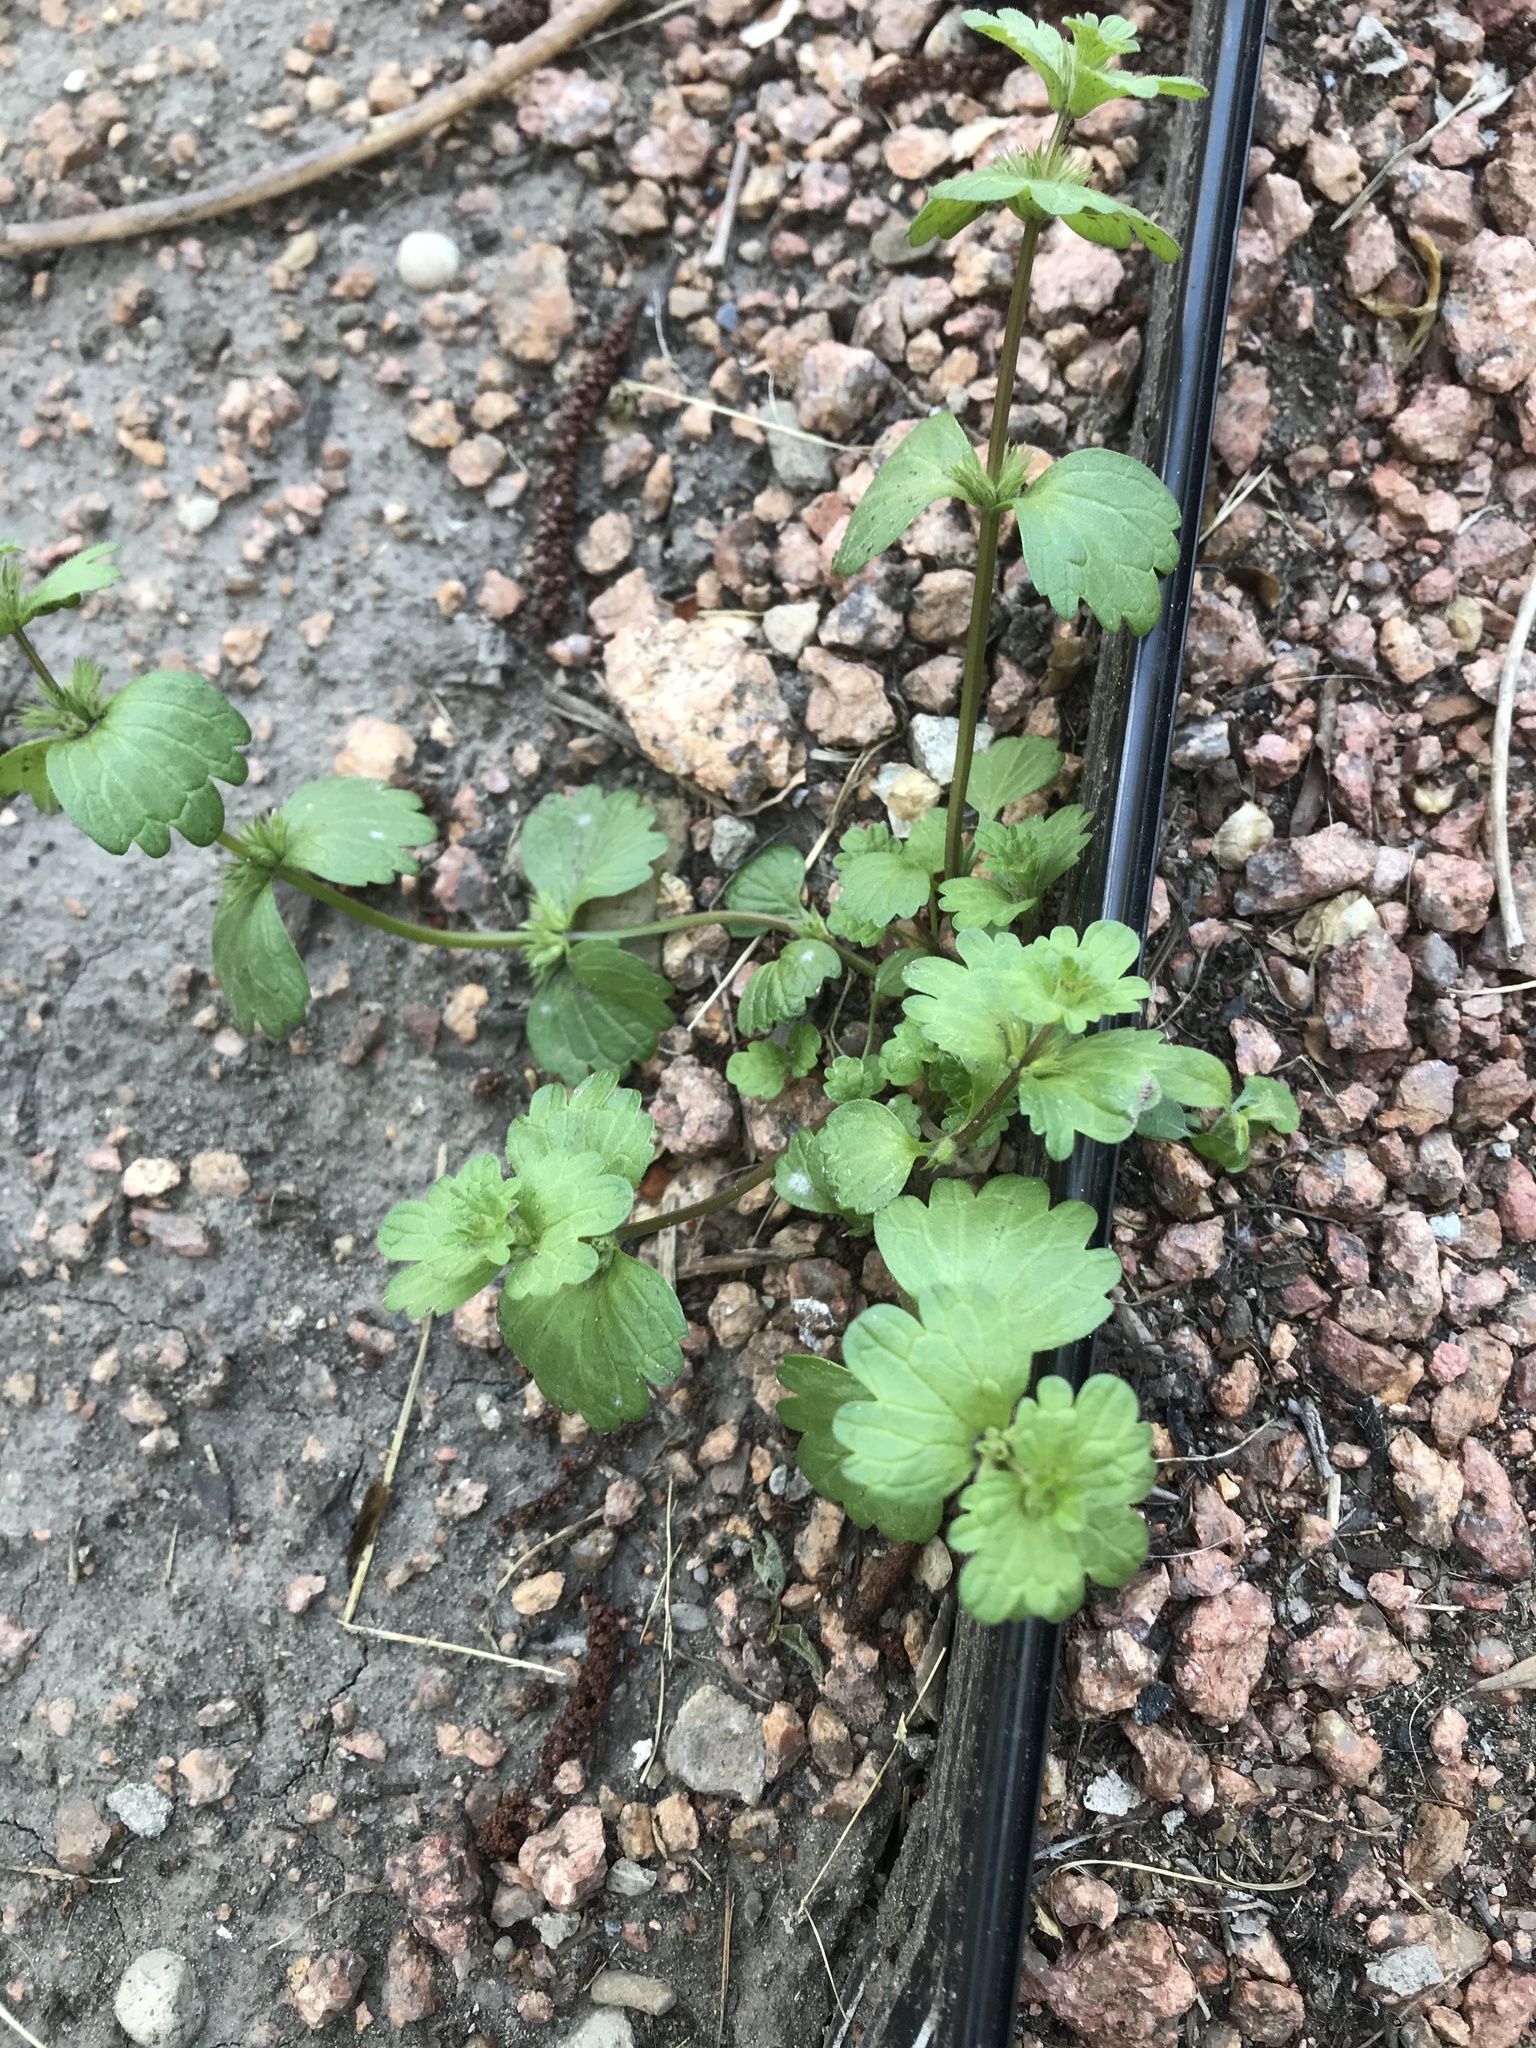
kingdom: Plantae
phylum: Tracheophyta
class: Magnoliopsida
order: Lamiales
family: Lamiaceae
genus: Lamium
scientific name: Lamium amplexicaule
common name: Henbit dead-nettle
